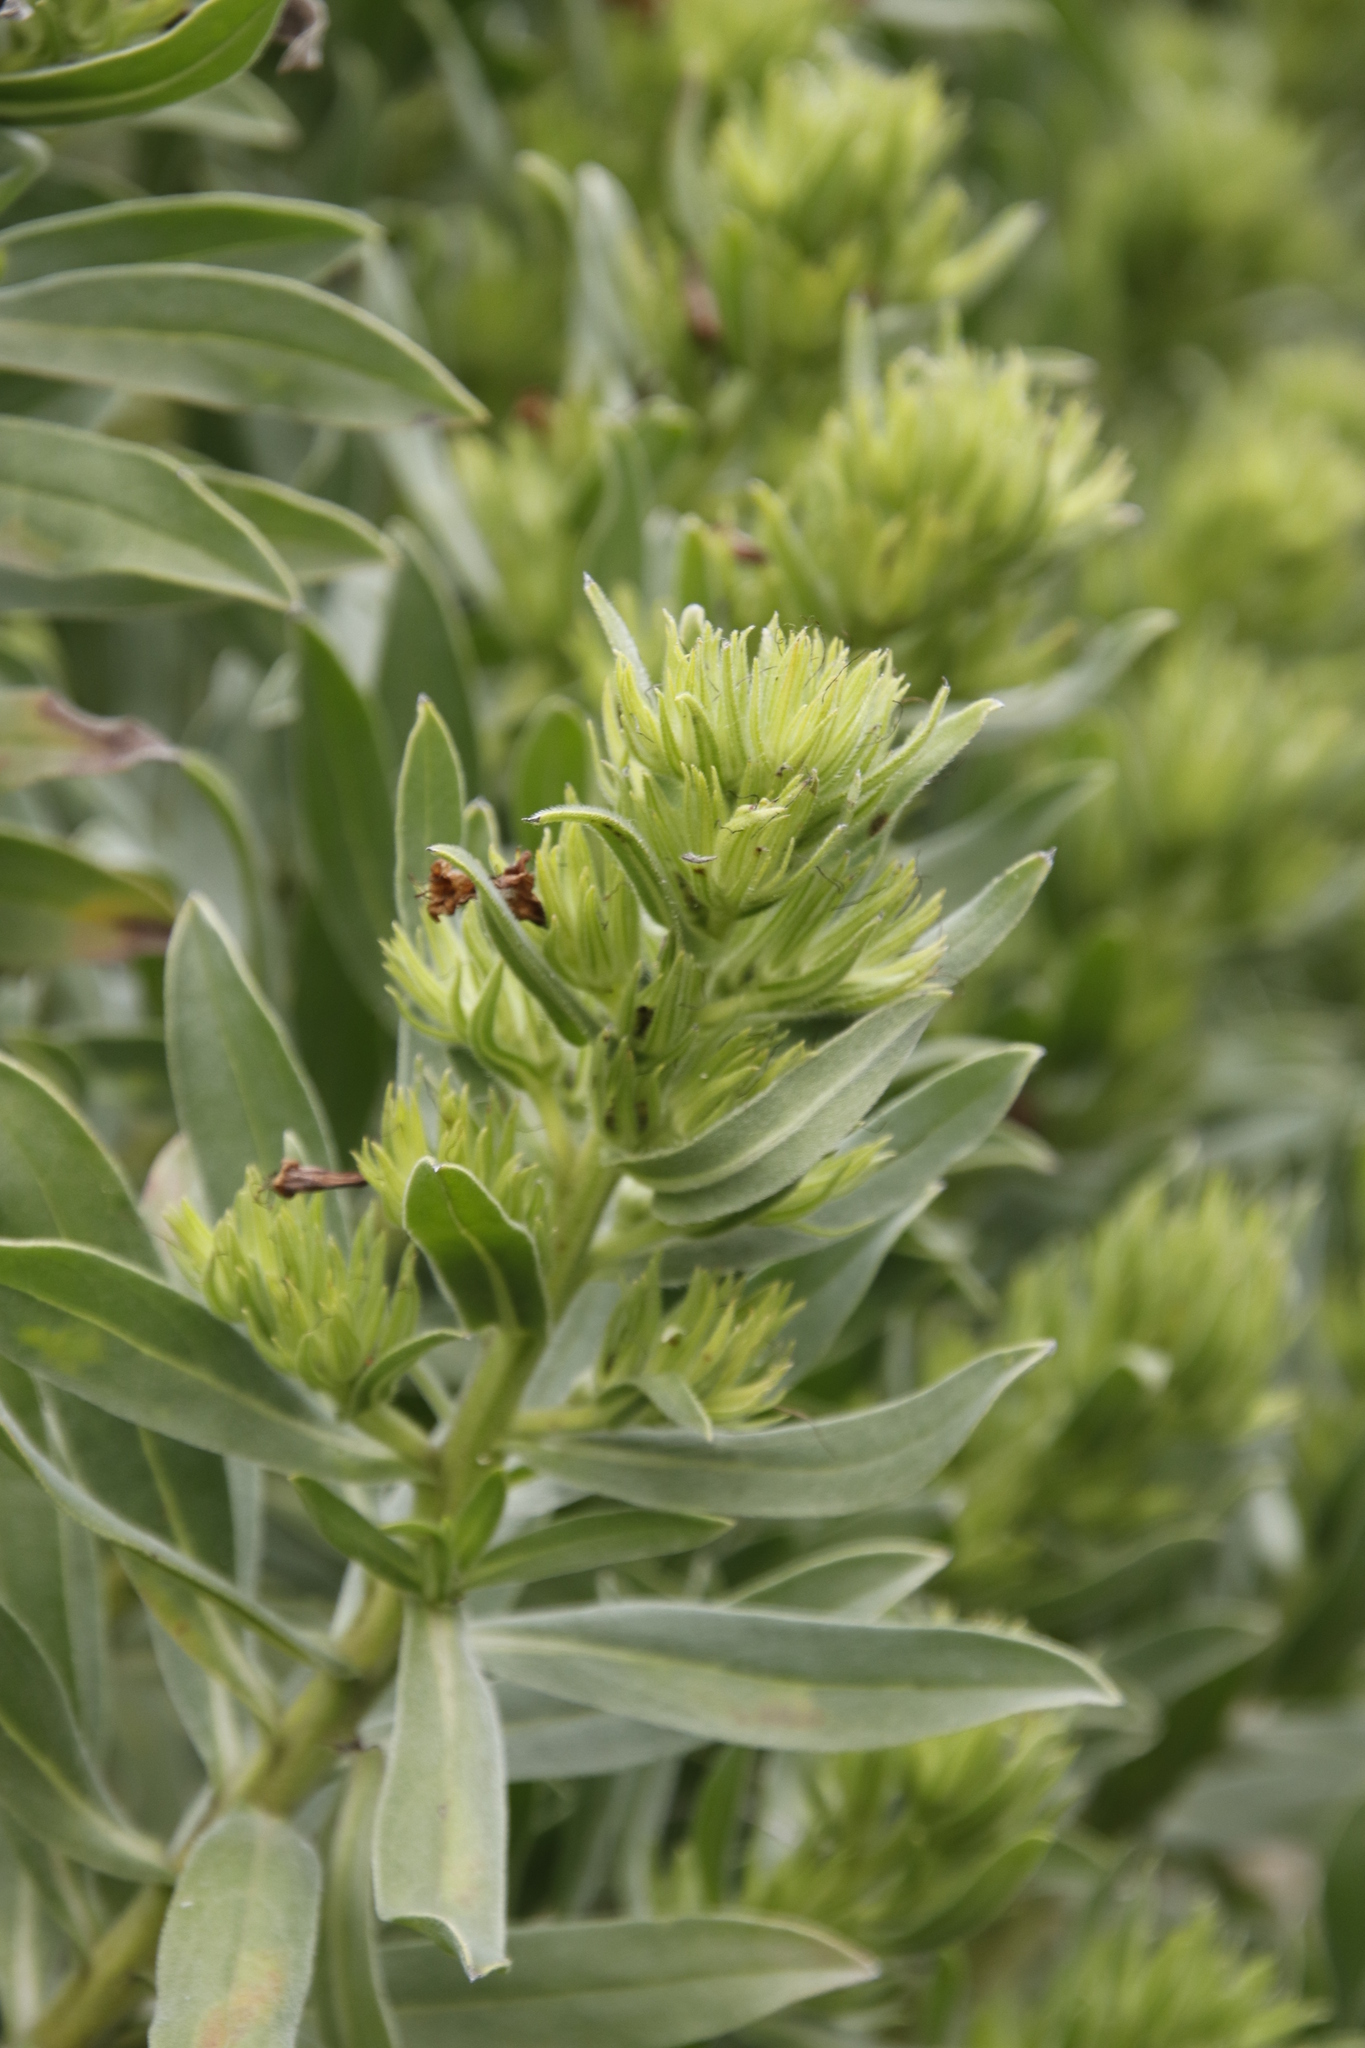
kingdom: Plantae
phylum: Tracheophyta
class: Magnoliopsida
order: Boraginales
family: Boraginaceae
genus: Lobostemon
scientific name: Lobostemon montanus
